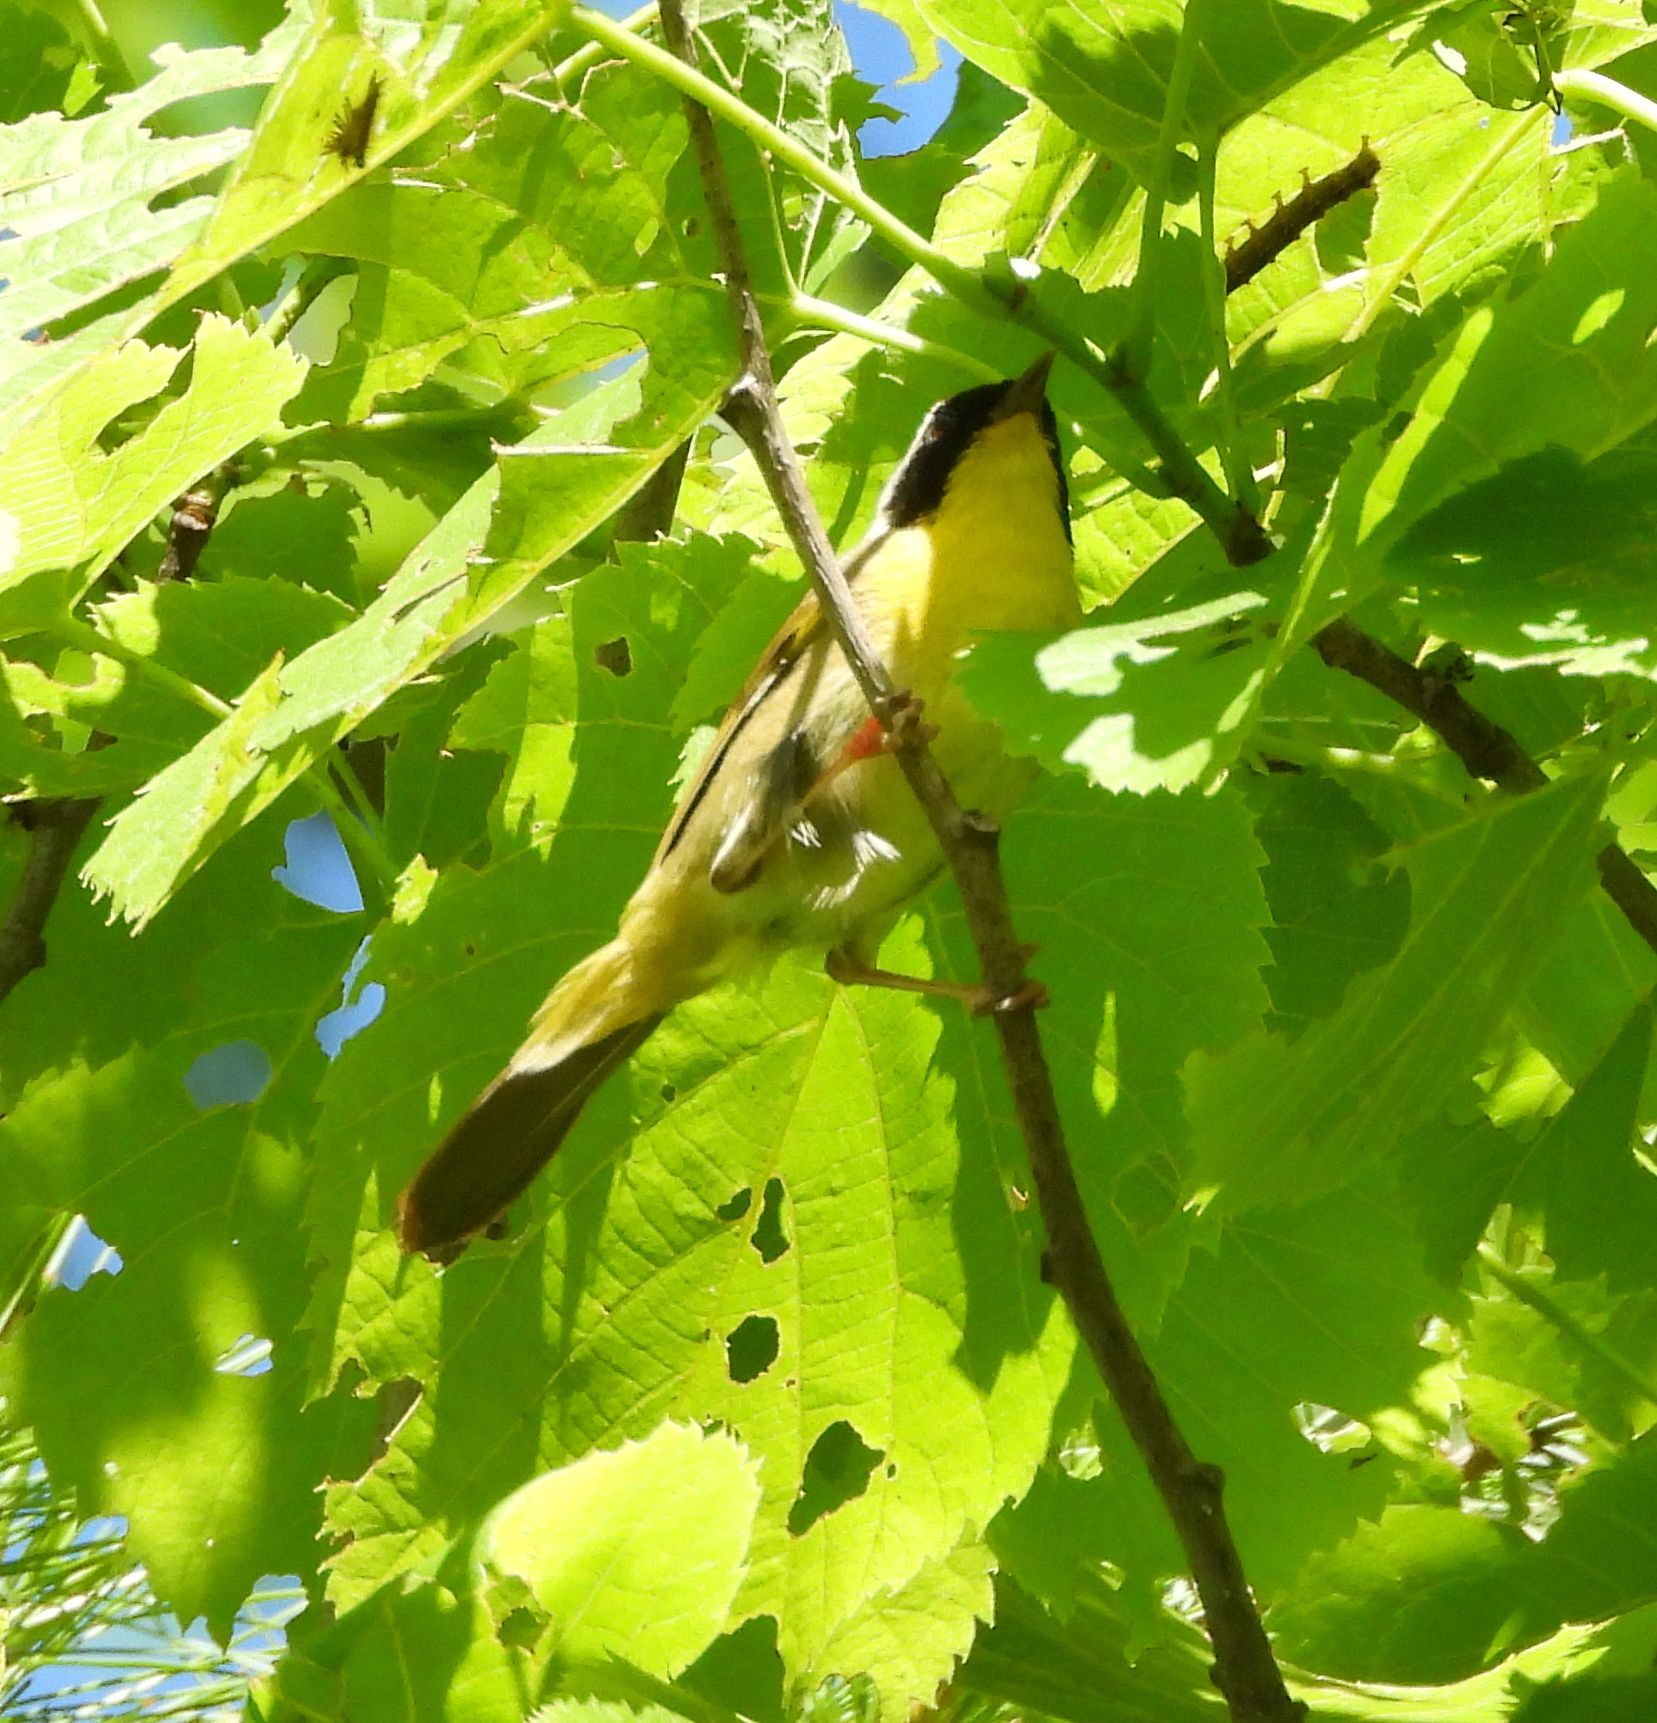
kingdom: Animalia
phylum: Chordata
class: Aves
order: Passeriformes
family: Parulidae
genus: Geothlypis
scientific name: Geothlypis trichas
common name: Common yellowthroat
